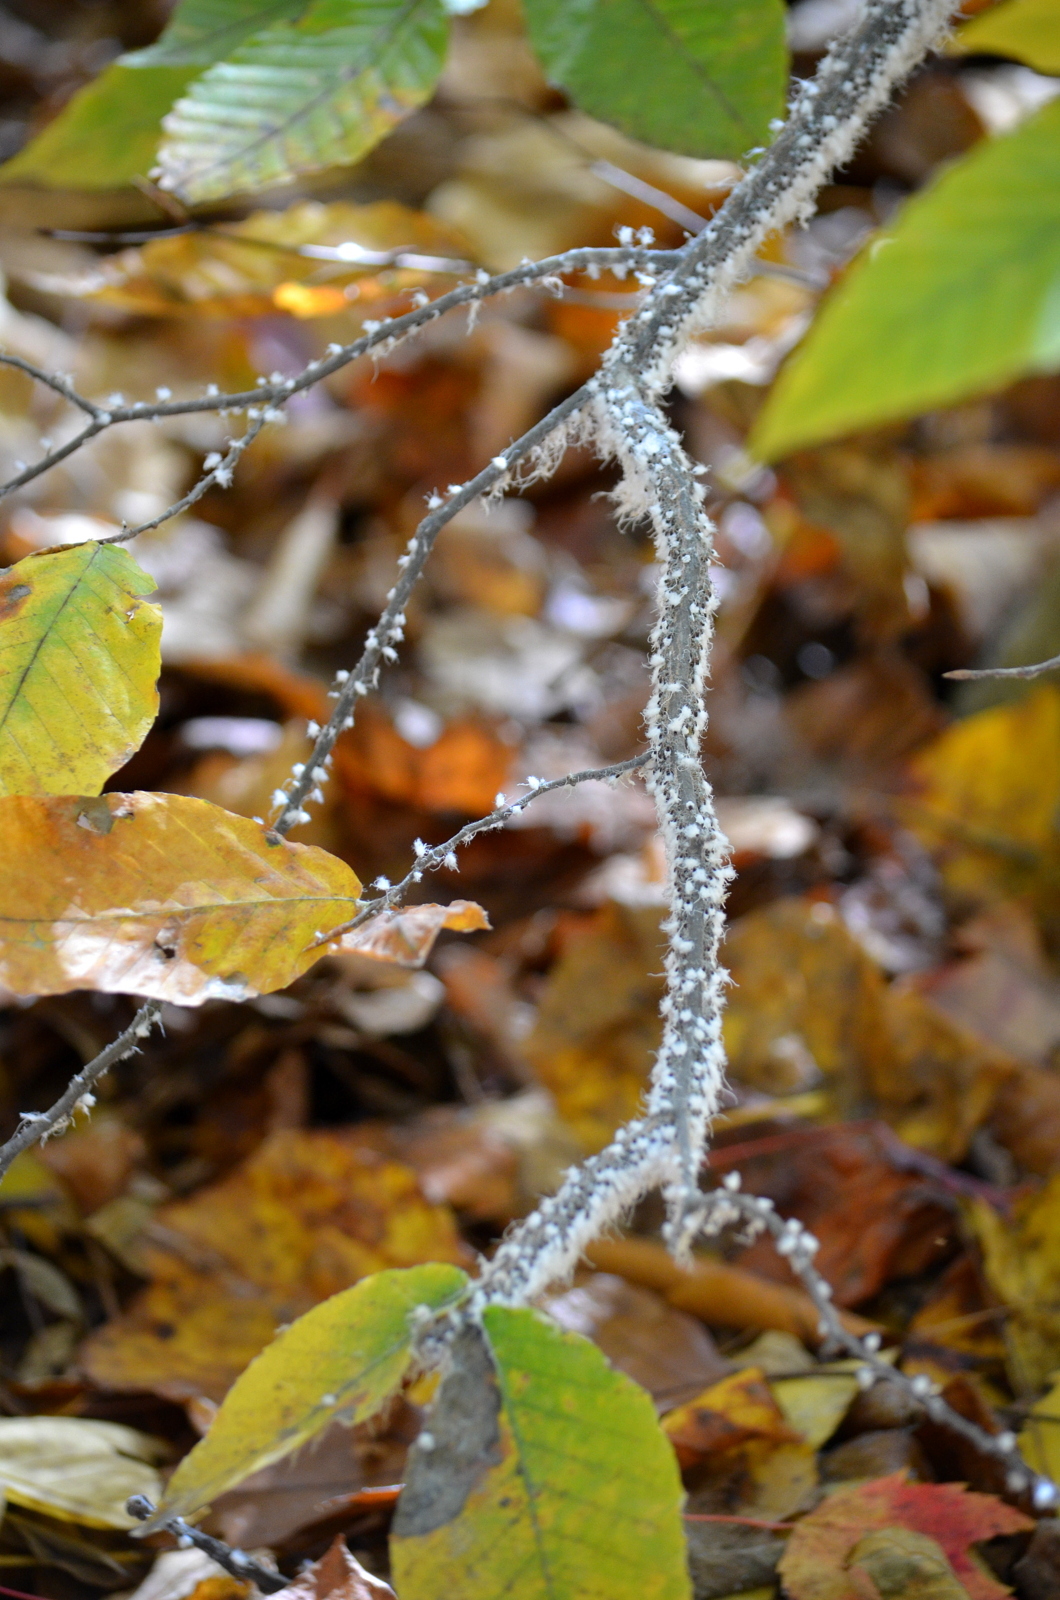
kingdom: Animalia
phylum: Arthropoda
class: Insecta
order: Hemiptera
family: Aphididae
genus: Grylloprociphilus
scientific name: Grylloprociphilus imbricator
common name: Beech blight aphid
